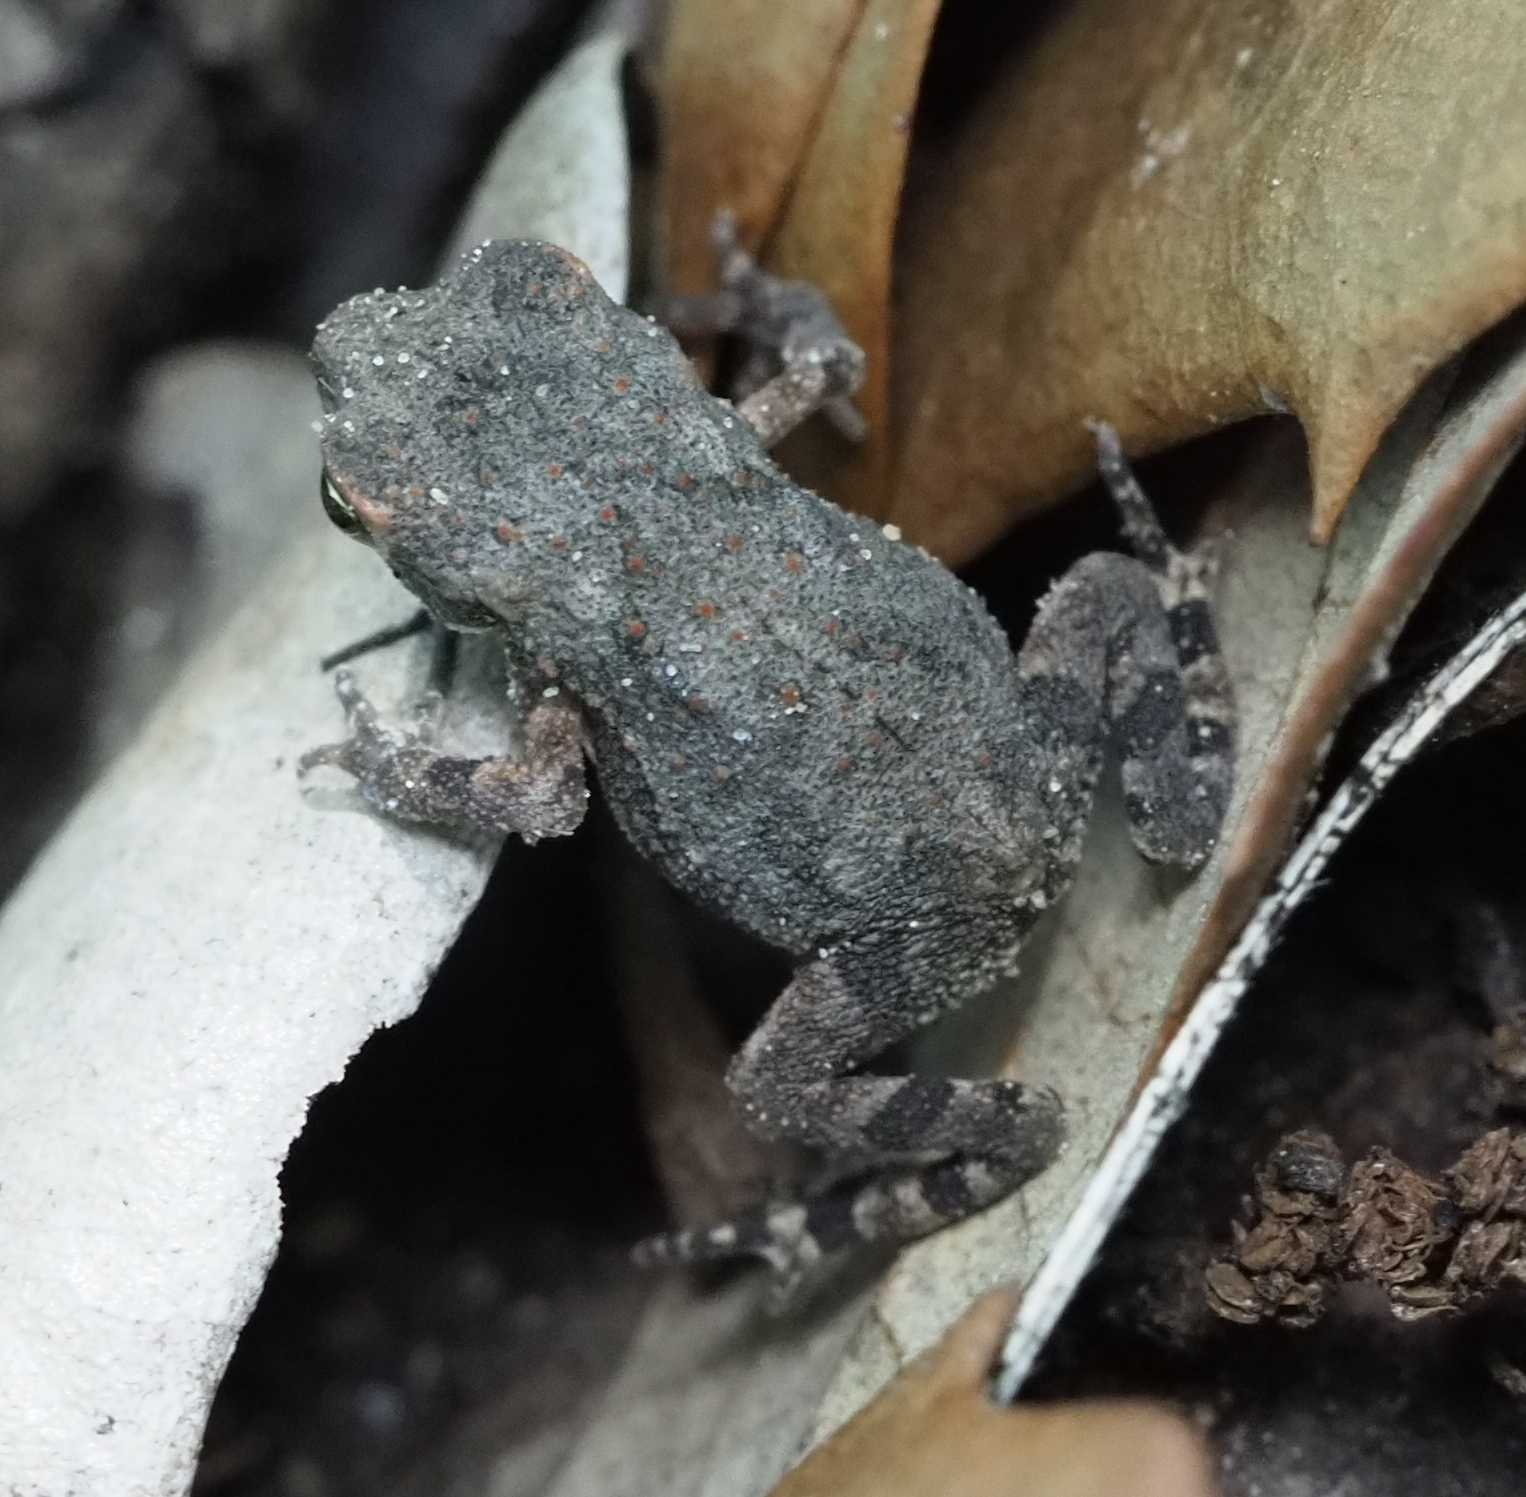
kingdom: Animalia
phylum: Chordata
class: Amphibia
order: Anura
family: Bufonidae
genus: Incilius
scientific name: Incilius nebulifer
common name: Gulf coast toad
